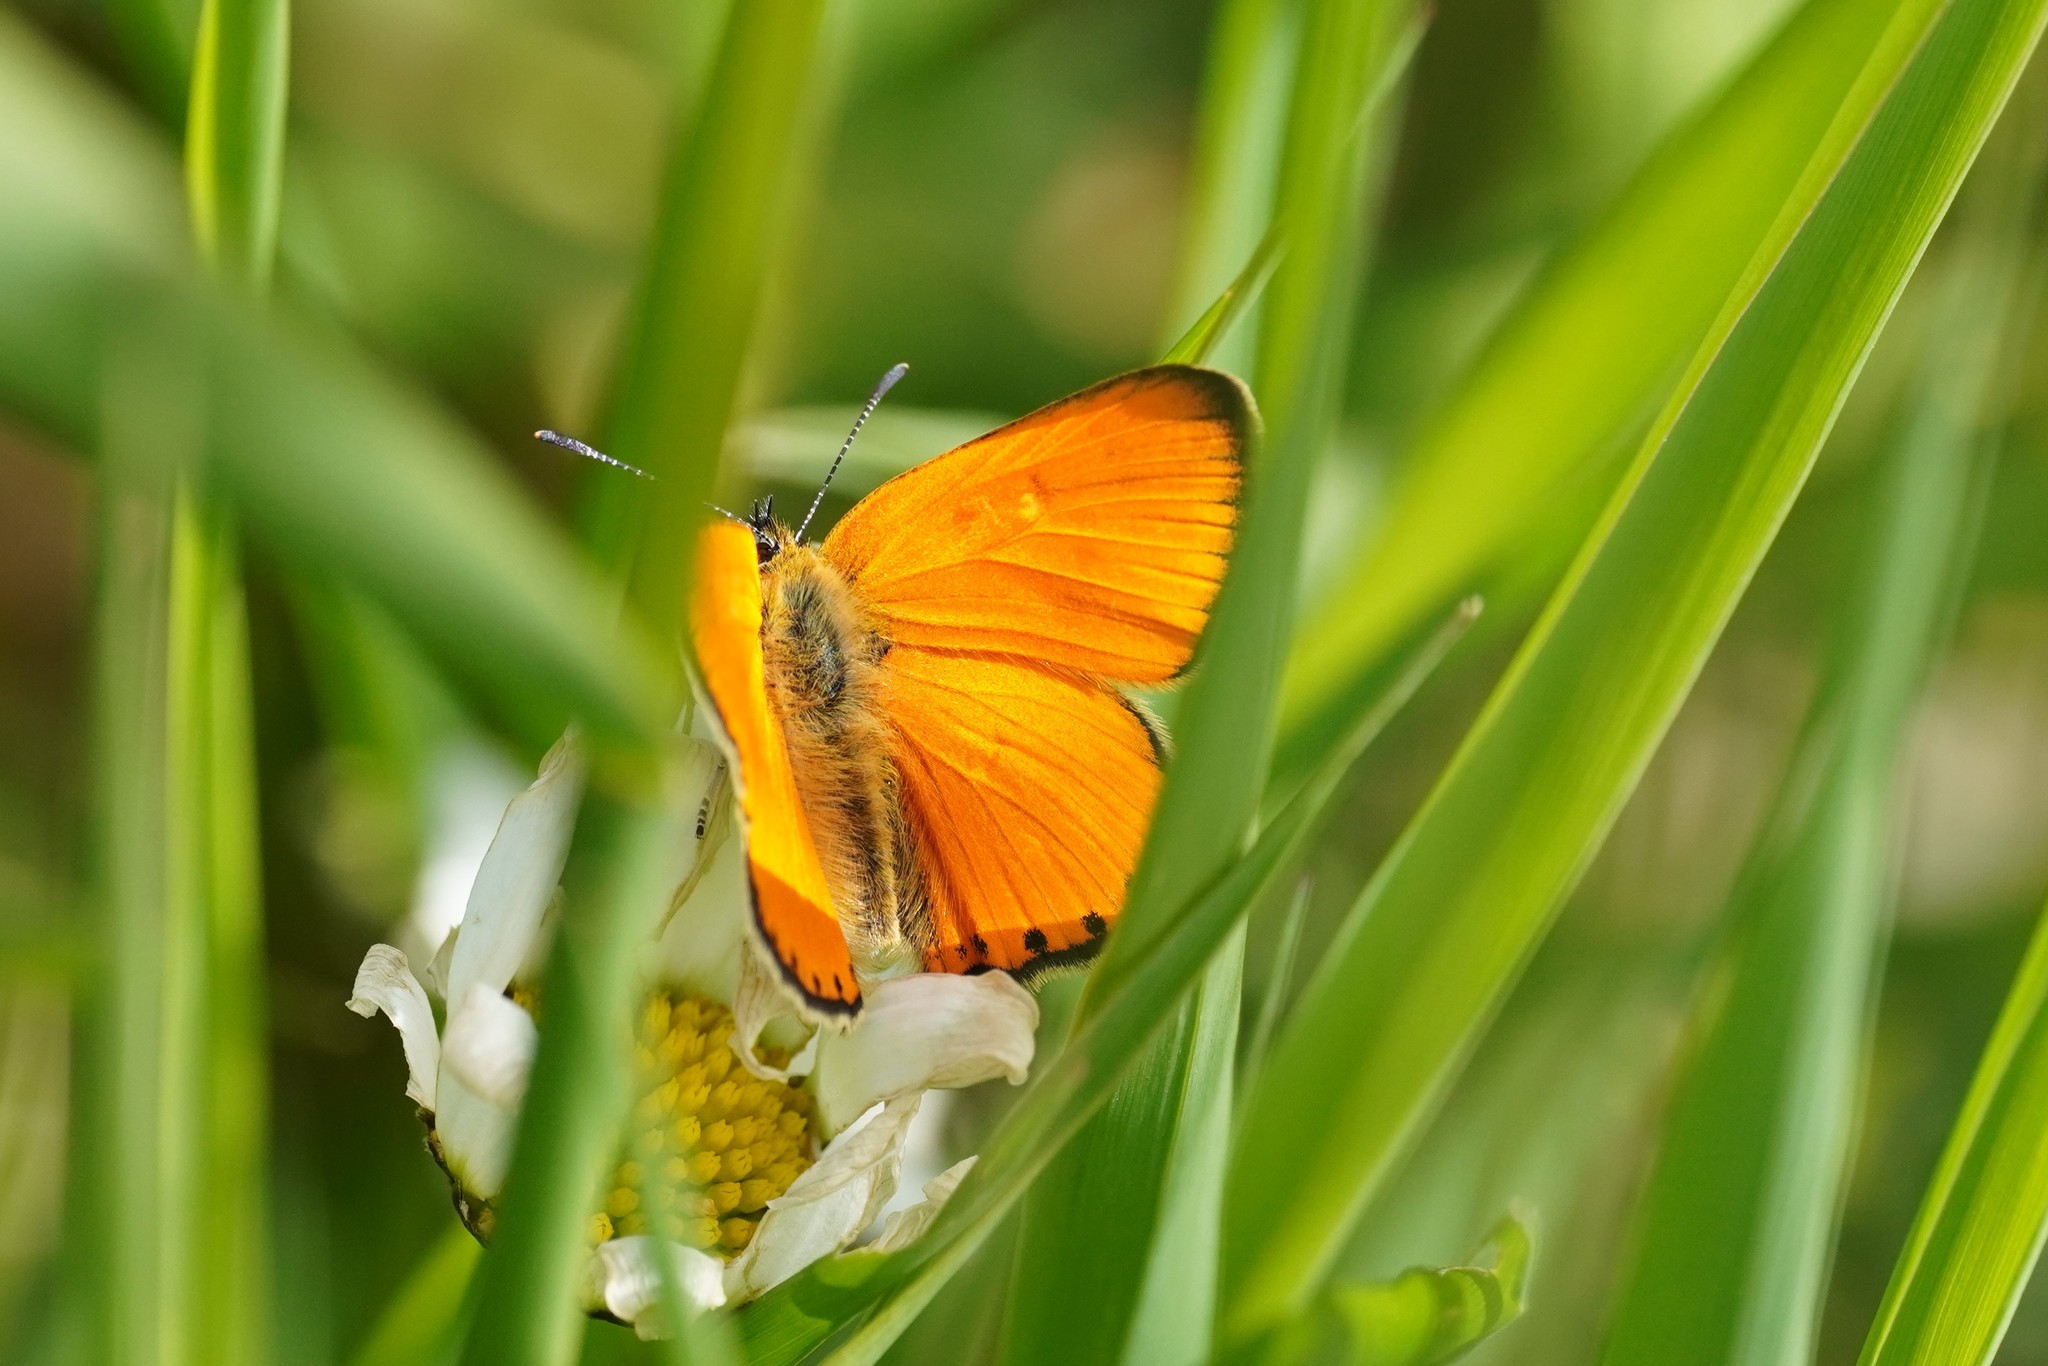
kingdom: Animalia
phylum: Arthropoda
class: Insecta
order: Lepidoptera
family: Lycaenidae
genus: Lycaena
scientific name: Lycaena virgaureae
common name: Scarce copper
